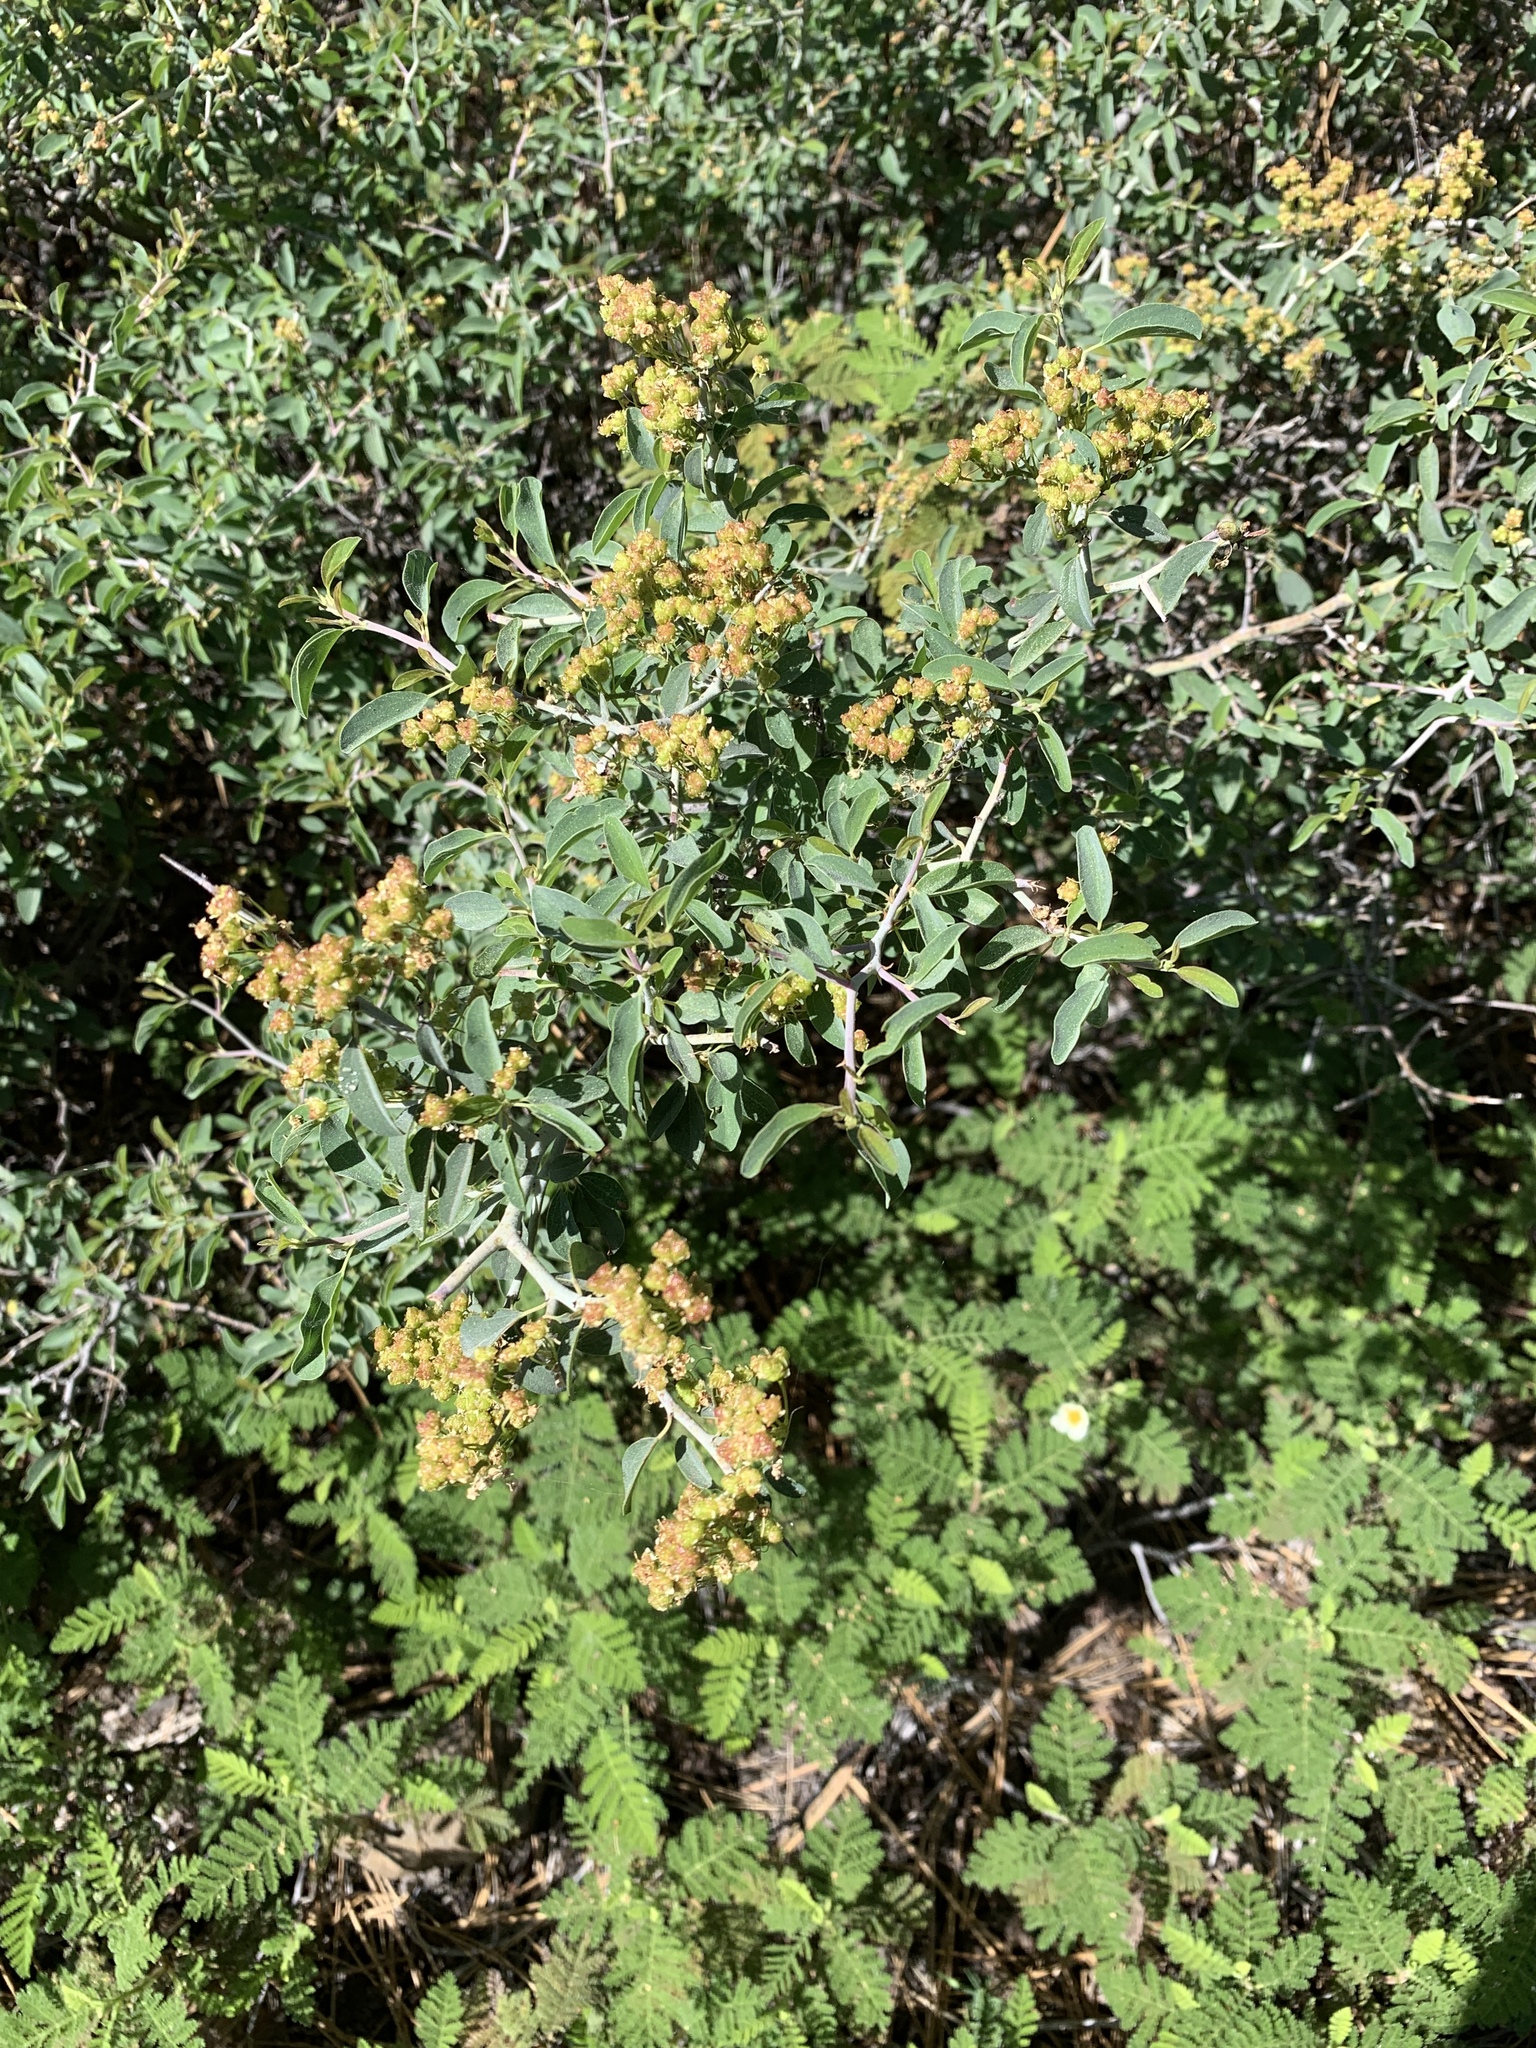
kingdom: Plantae
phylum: Tracheophyta
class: Magnoliopsida
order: Rosales
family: Rhamnaceae
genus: Ceanothus
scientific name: Ceanothus cordulatus
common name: Mountain whitethorn
